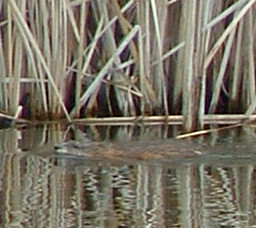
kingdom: Animalia
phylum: Chordata
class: Mammalia
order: Rodentia
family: Cricetidae
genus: Ondatra
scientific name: Ondatra zibethicus
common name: Muskrat
